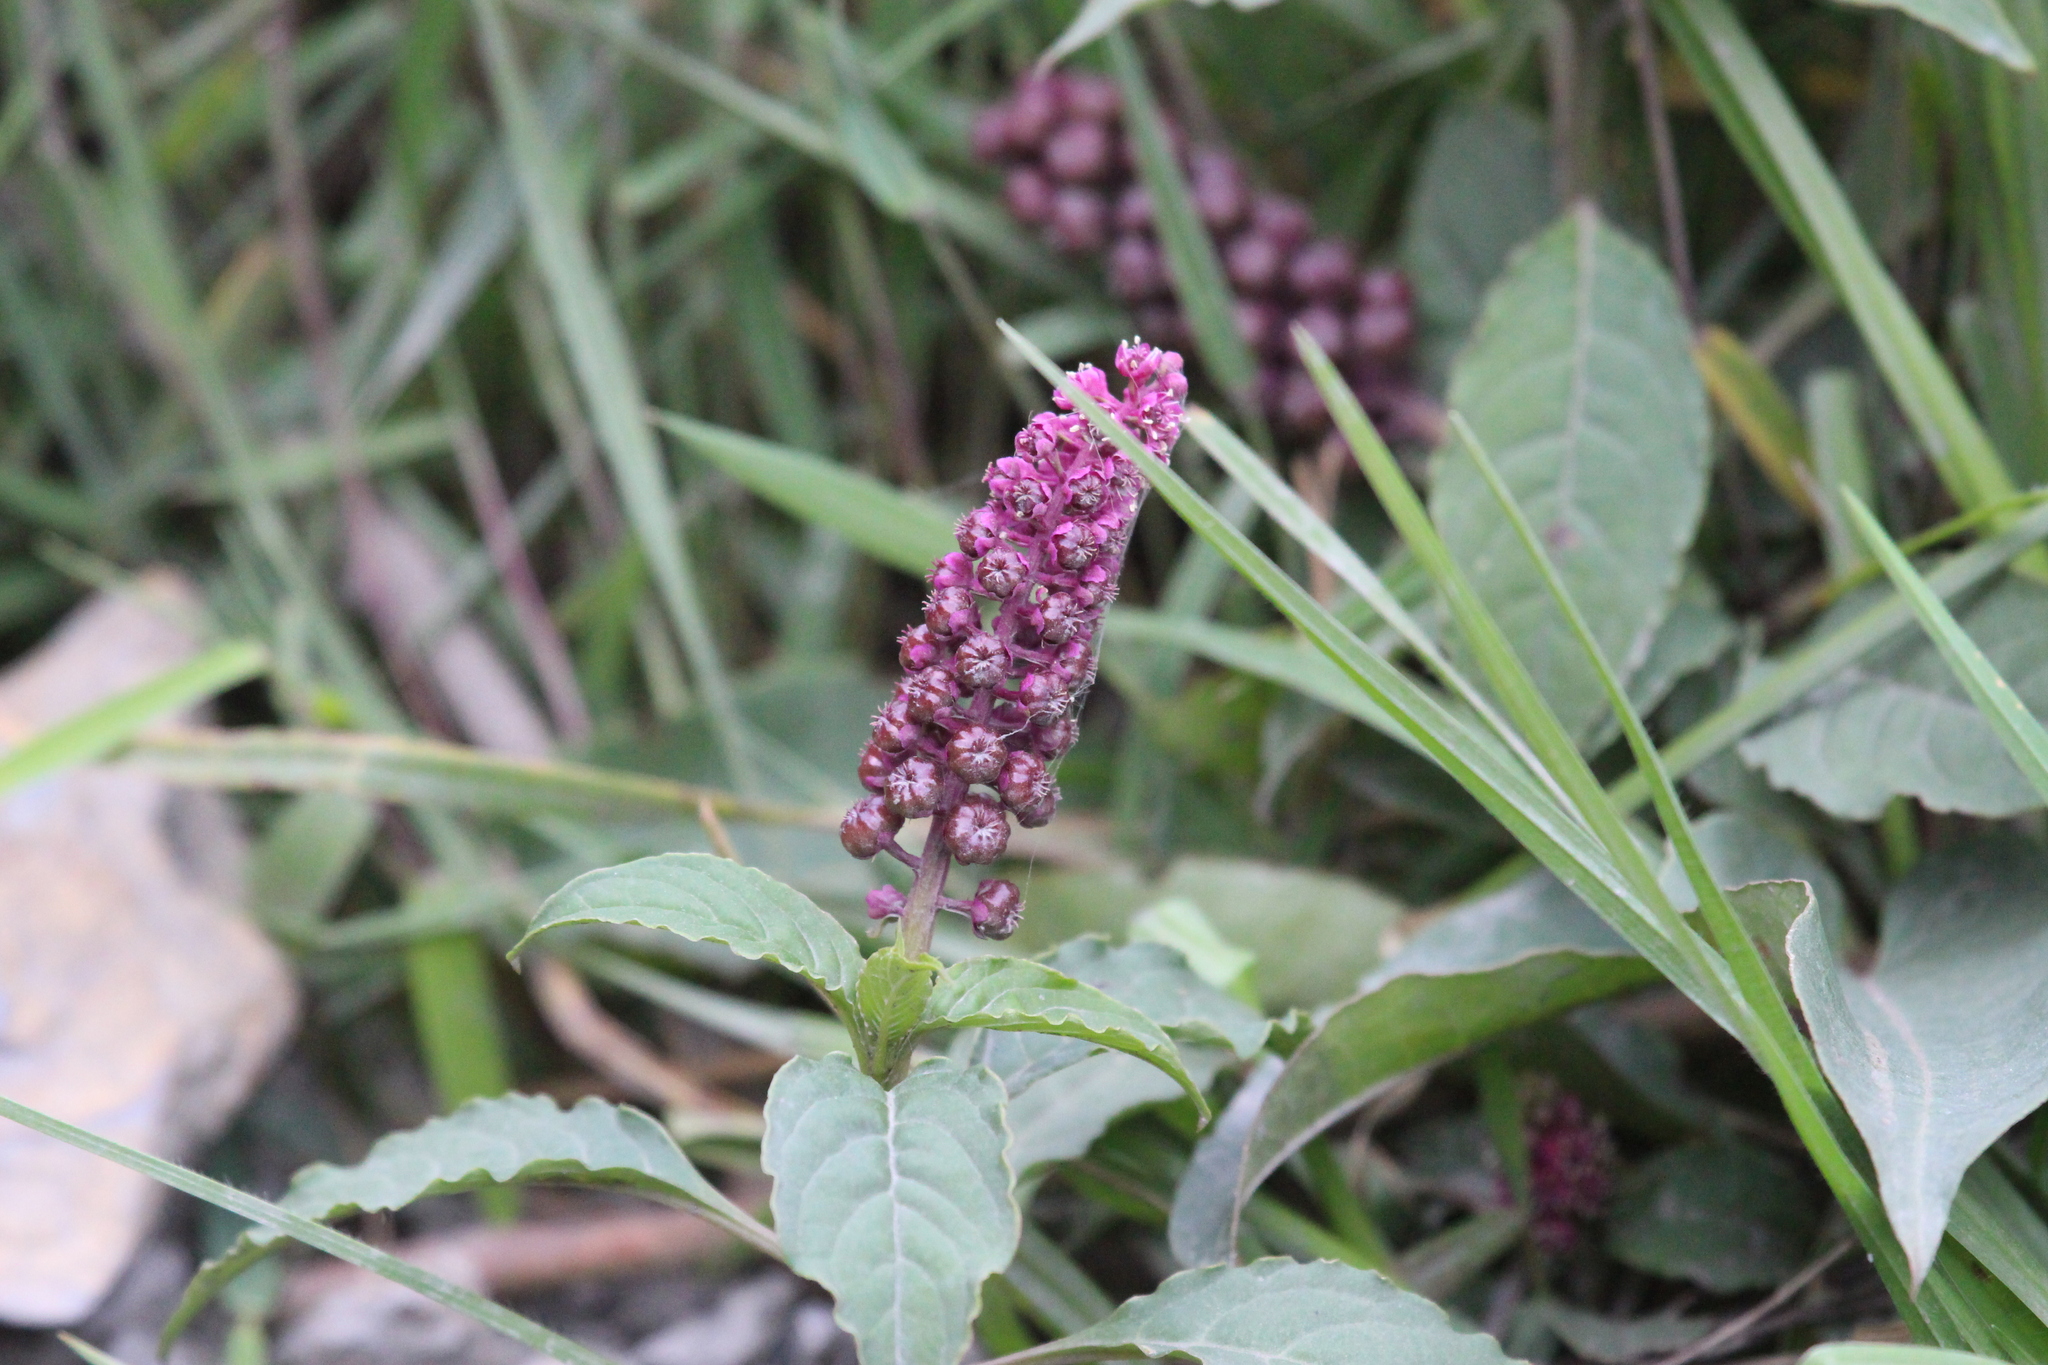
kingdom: Plantae
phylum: Tracheophyta
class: Magnoliopsida
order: Caryophyllales
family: Phytolaccaceae
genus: Phytolacca
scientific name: Phytolacca bogotensis
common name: Southern pokeweed
